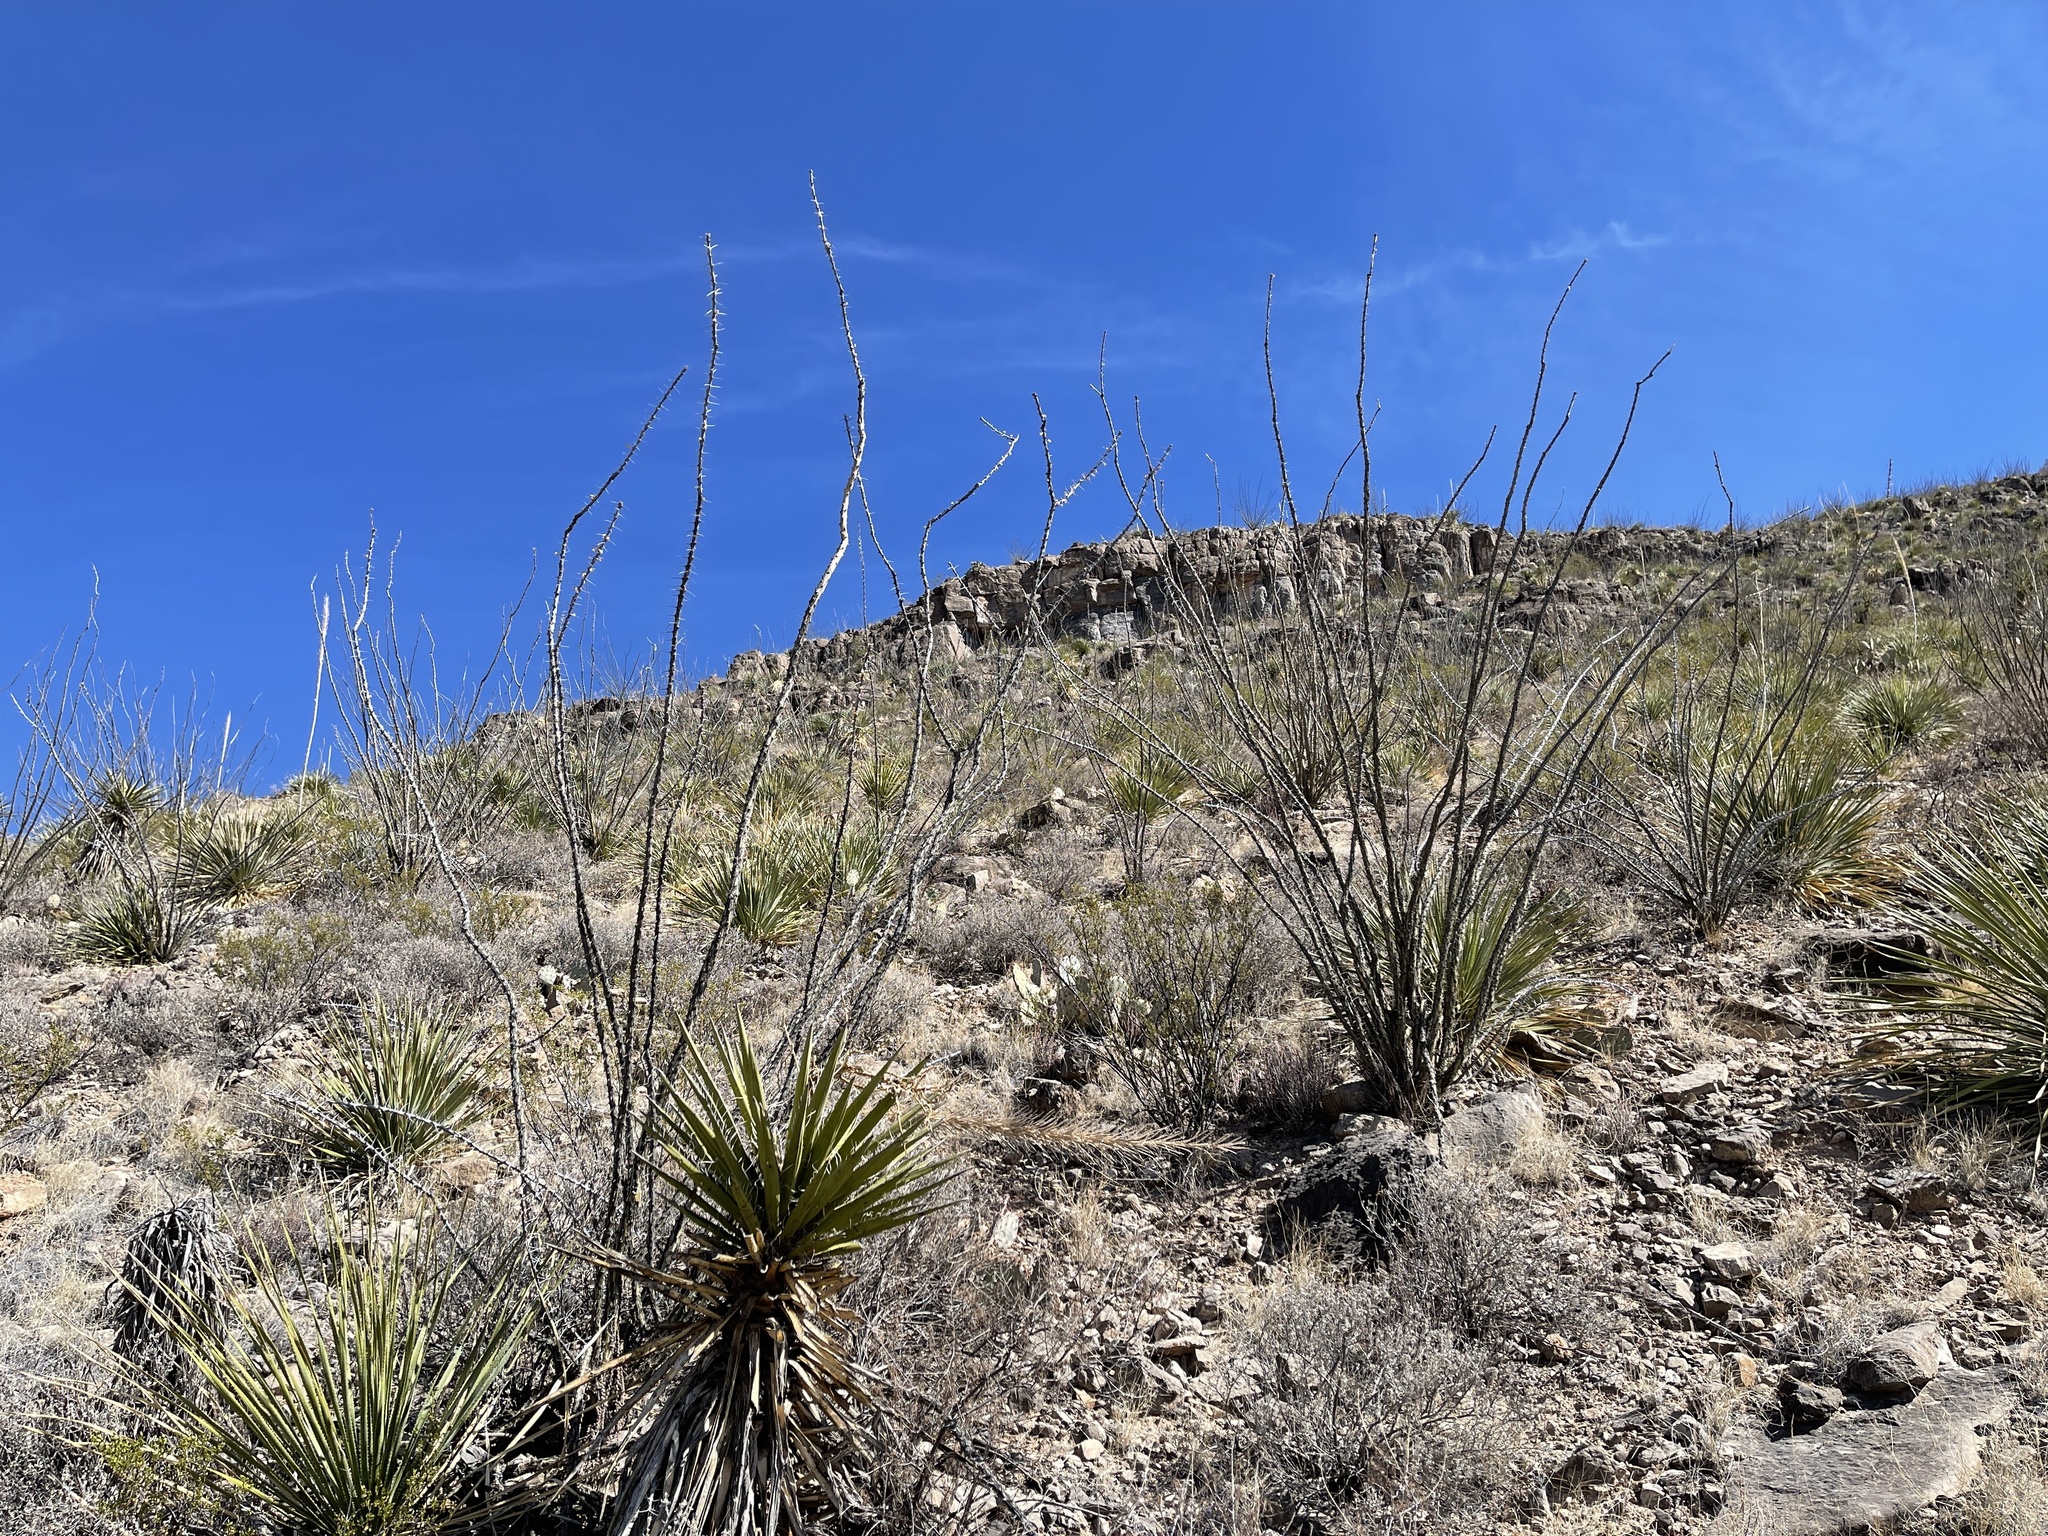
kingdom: Plantae
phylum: Tracheophyta
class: Magnoliopsida
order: Ericales
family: Fouquieriaceae
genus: Fouquieria
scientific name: Fouquieria splendens
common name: Vine-cactus
